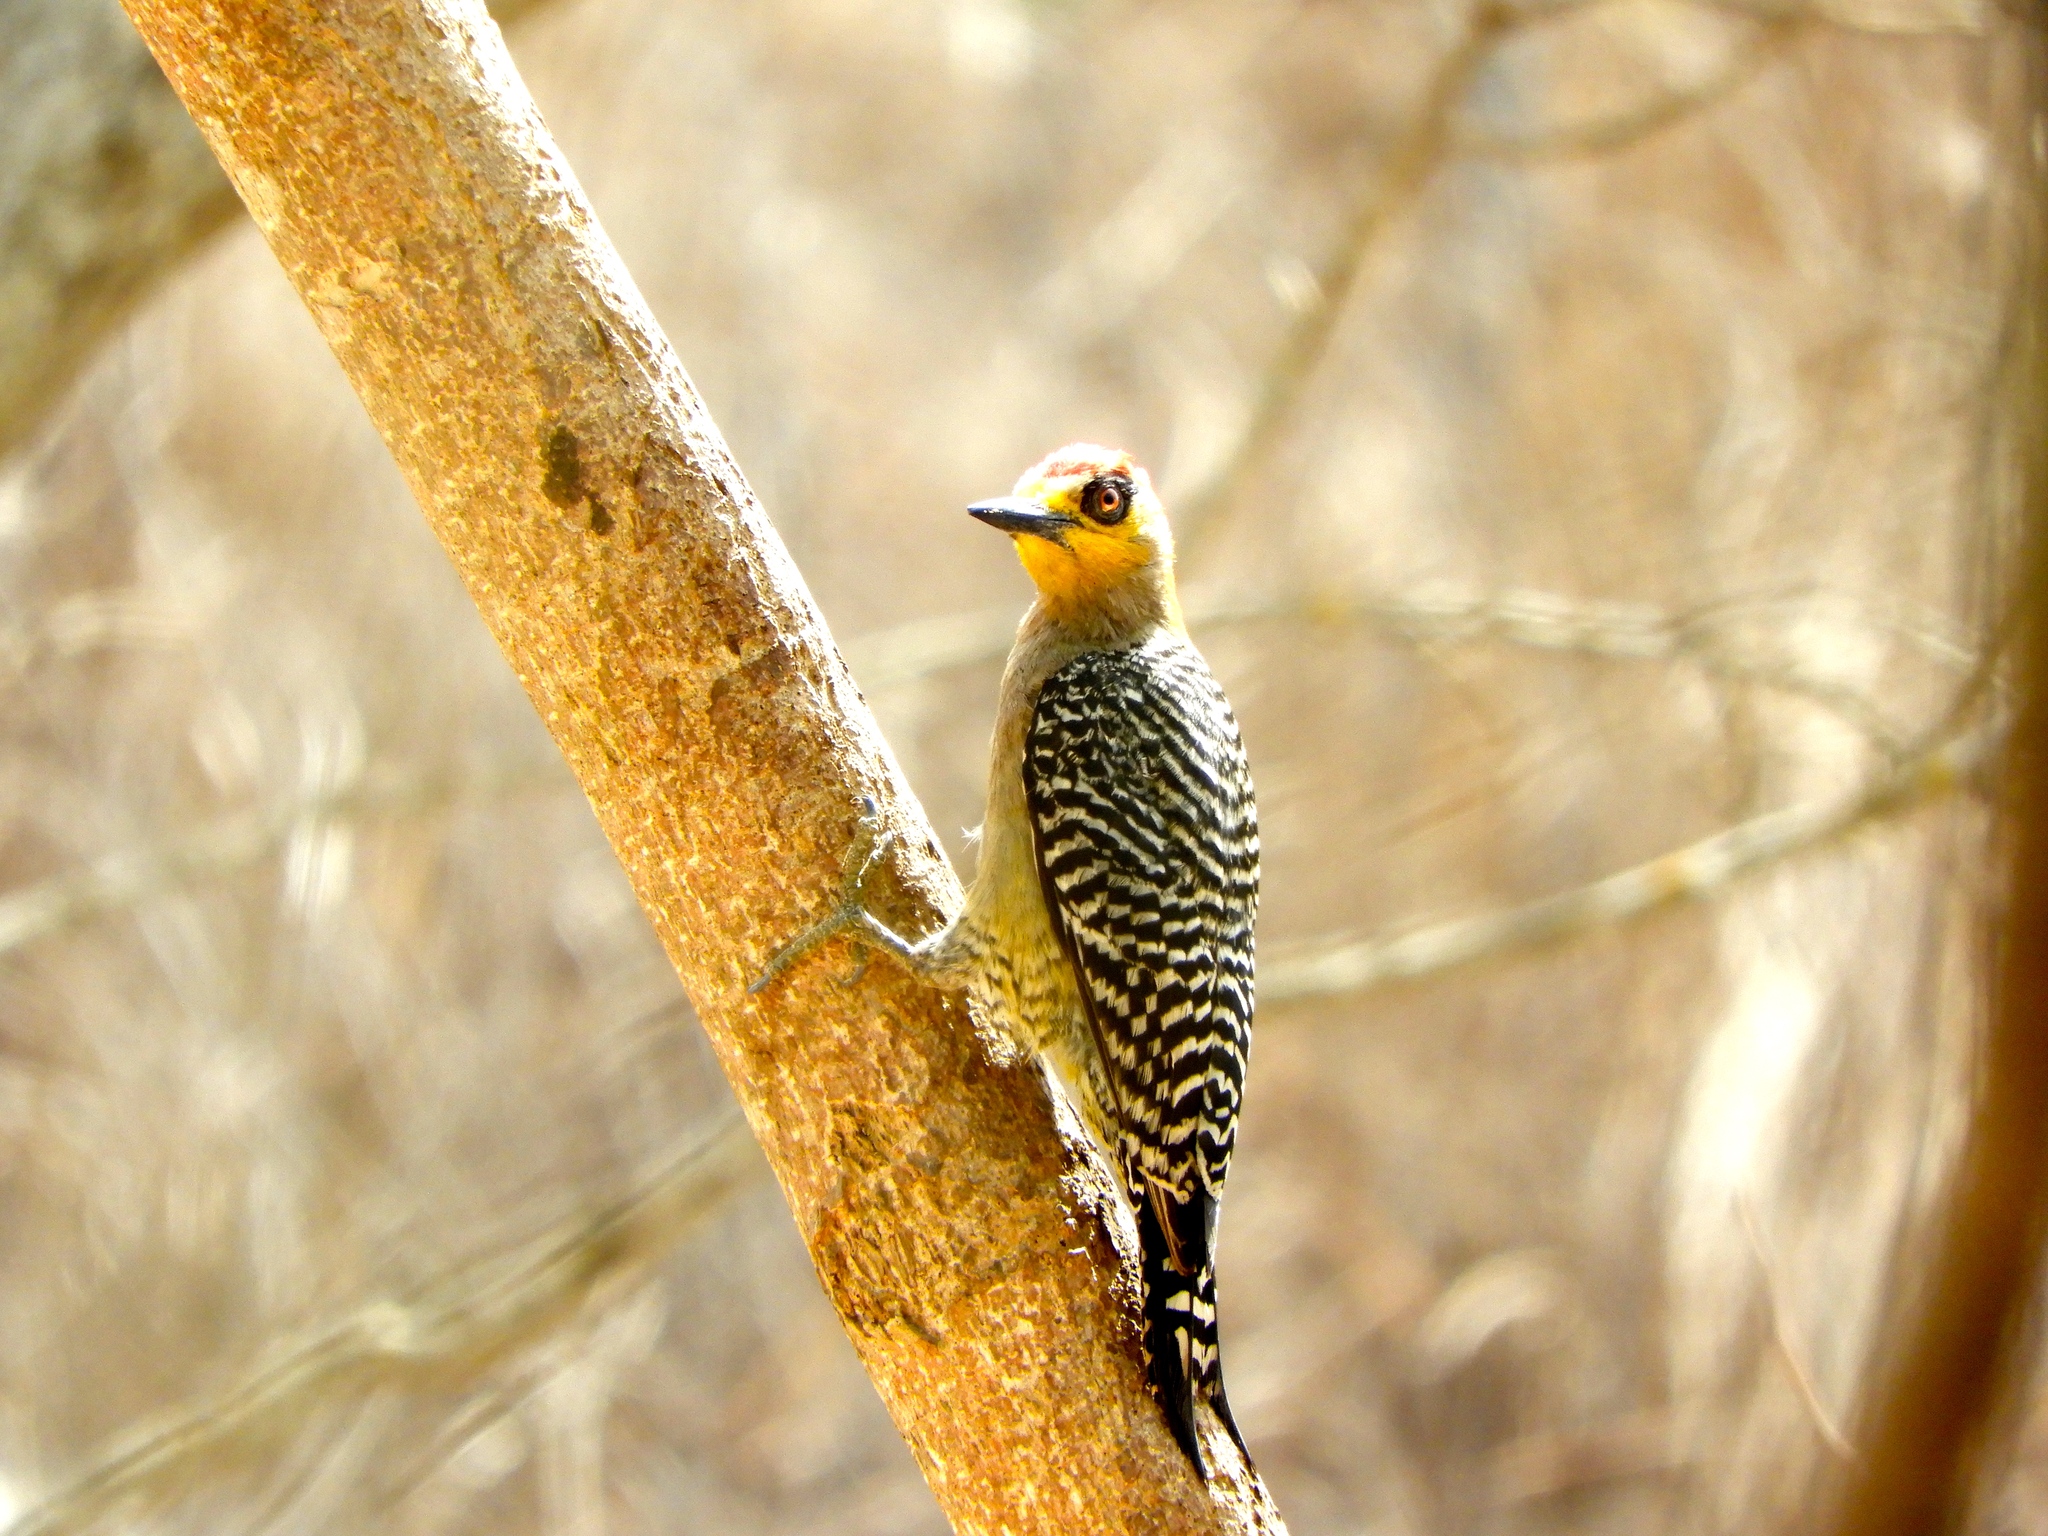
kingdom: Animalia
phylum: Chordata
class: Aves
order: Piciformes
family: Picidae
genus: Melanerpes
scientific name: Melanerpes chrysogenys
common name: Golden-cheeked woodpecker
